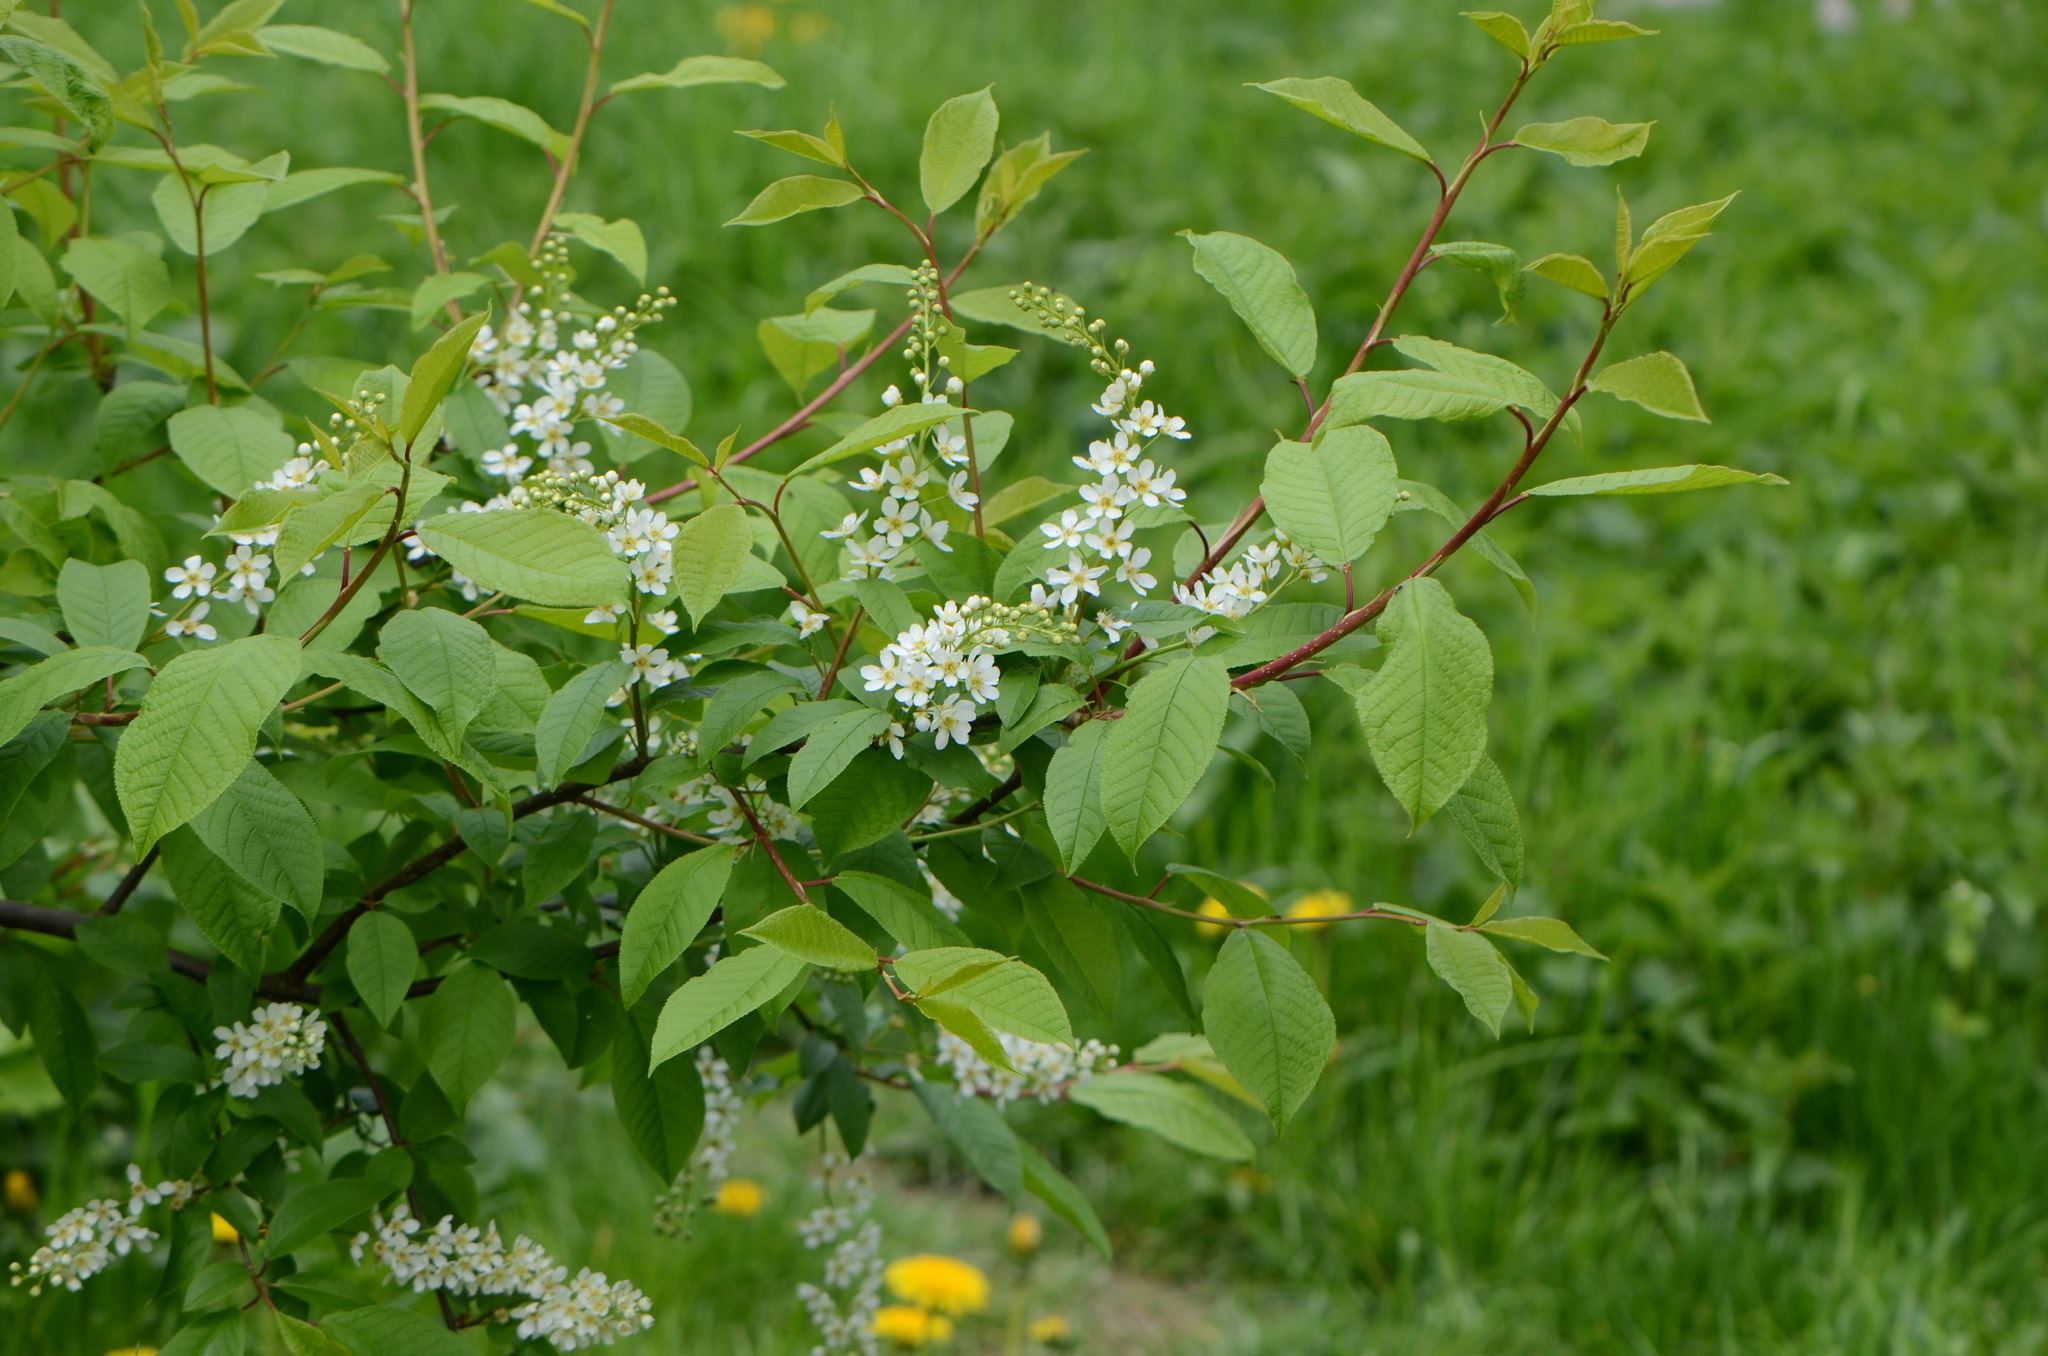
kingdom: Plantae
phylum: Tracheophyta
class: Magnoliopsida
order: Rosales
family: Rosaceae
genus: Prunus
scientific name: Prunus padus
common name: Bird cherry
